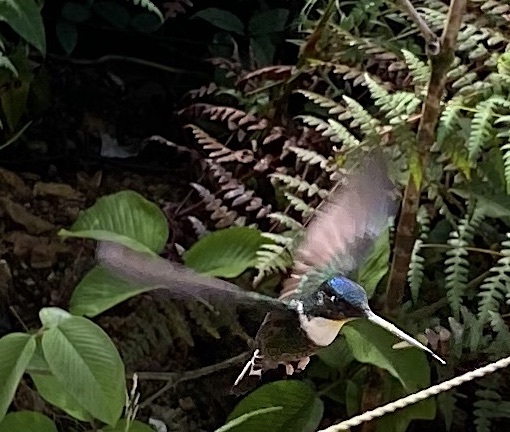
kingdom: Animalia
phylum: Chordata
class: Aves
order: Apodiformes
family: Trochilidae
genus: Coeligena
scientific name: Coeligena torquata
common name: Collared inca
